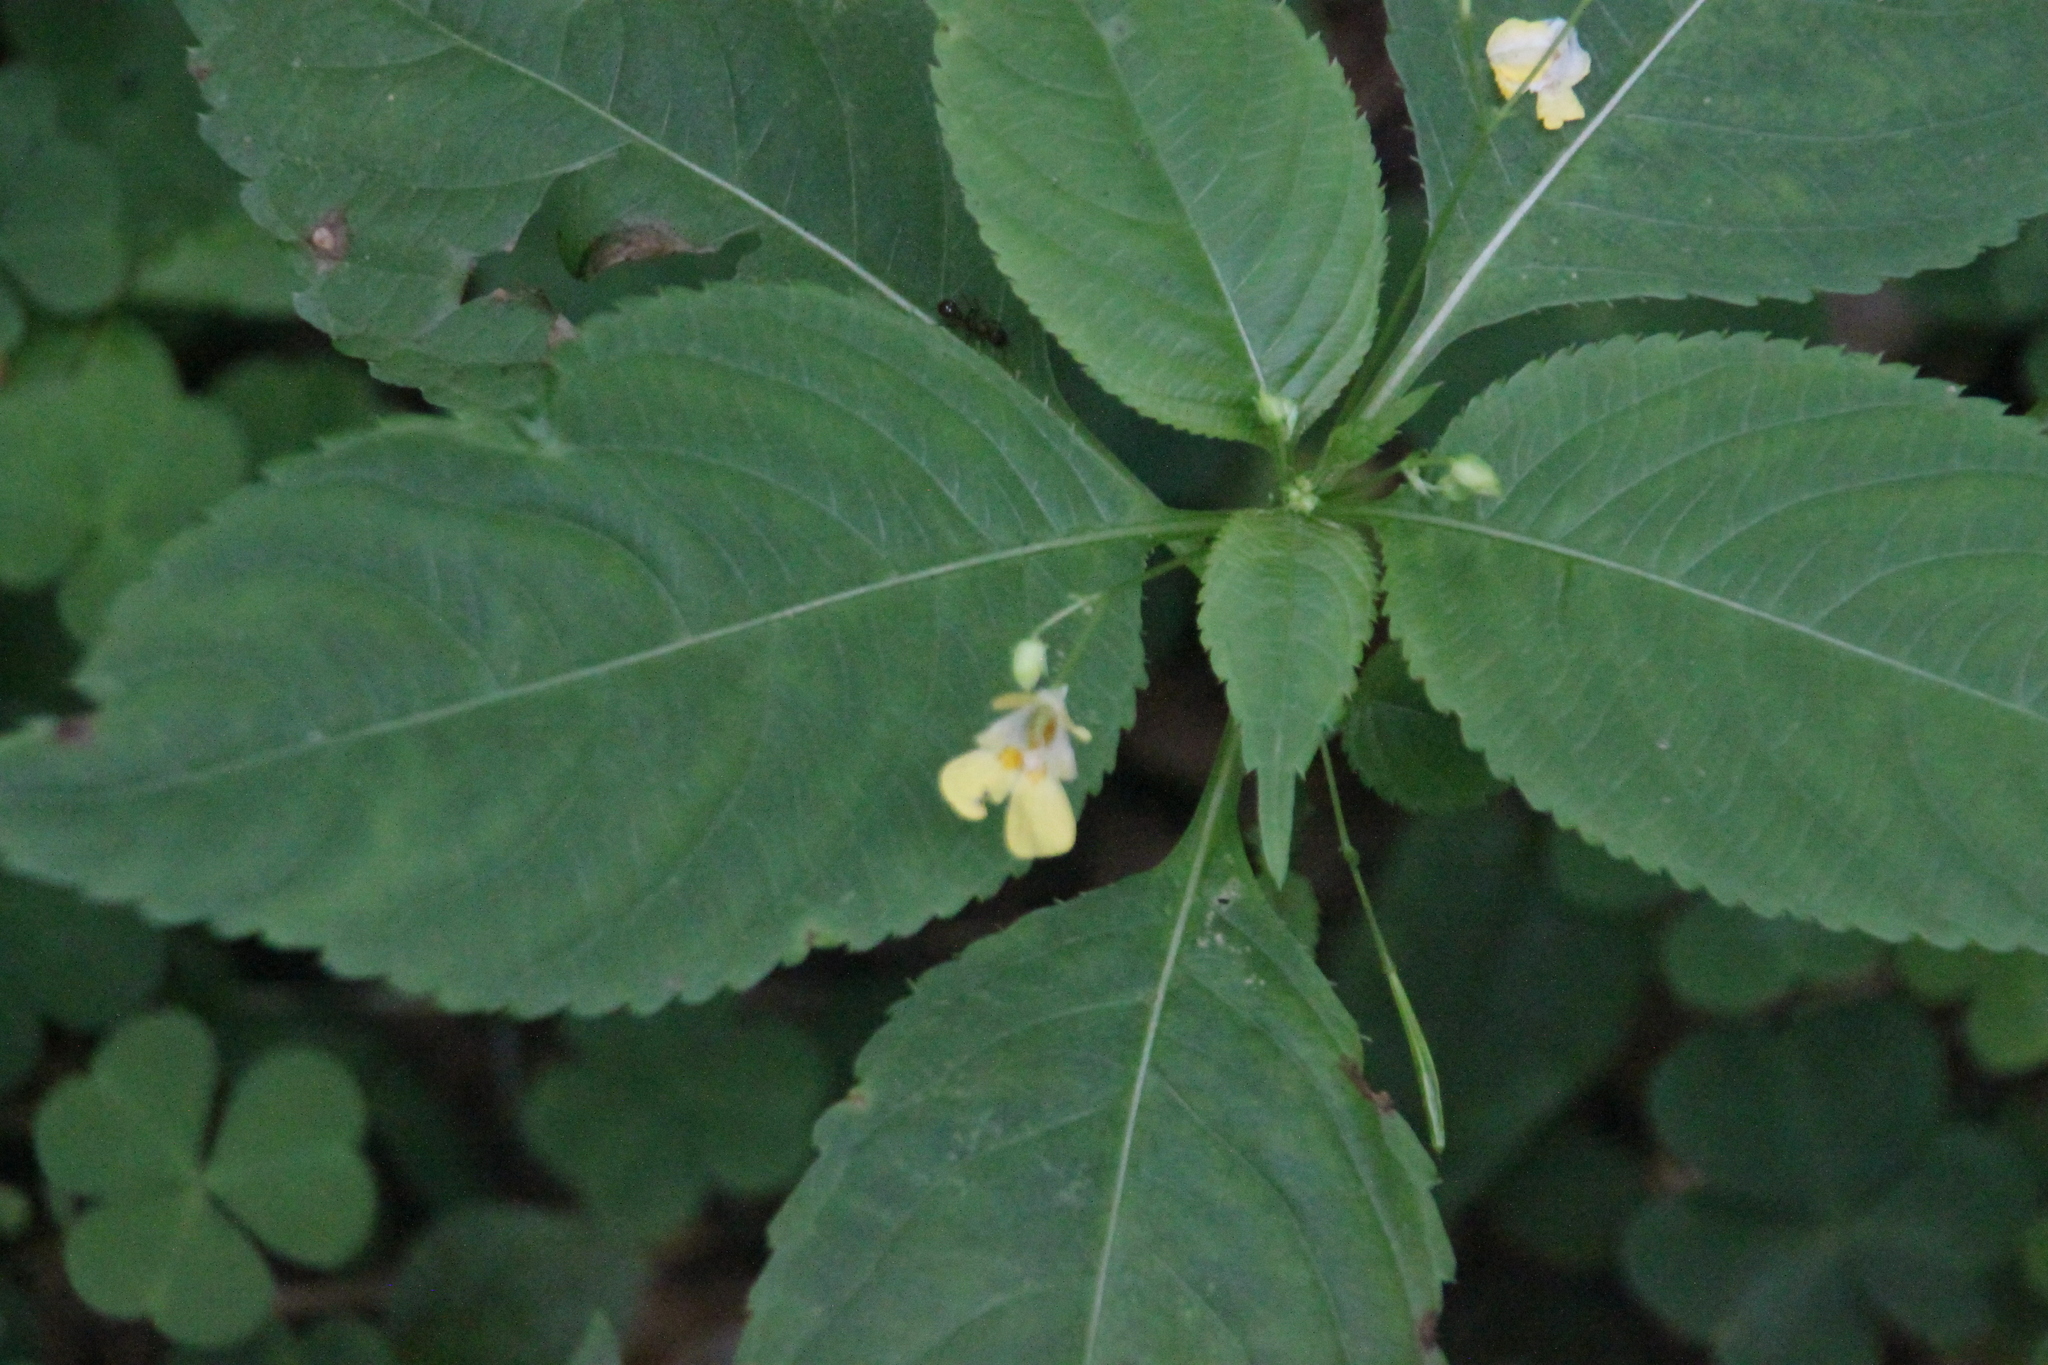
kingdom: Plantae
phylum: Tracheophyta
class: Magnoliopsida
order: Ericales
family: Balsaminaceae
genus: Impatiens
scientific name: Impatiens parviflora
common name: Small balsam
